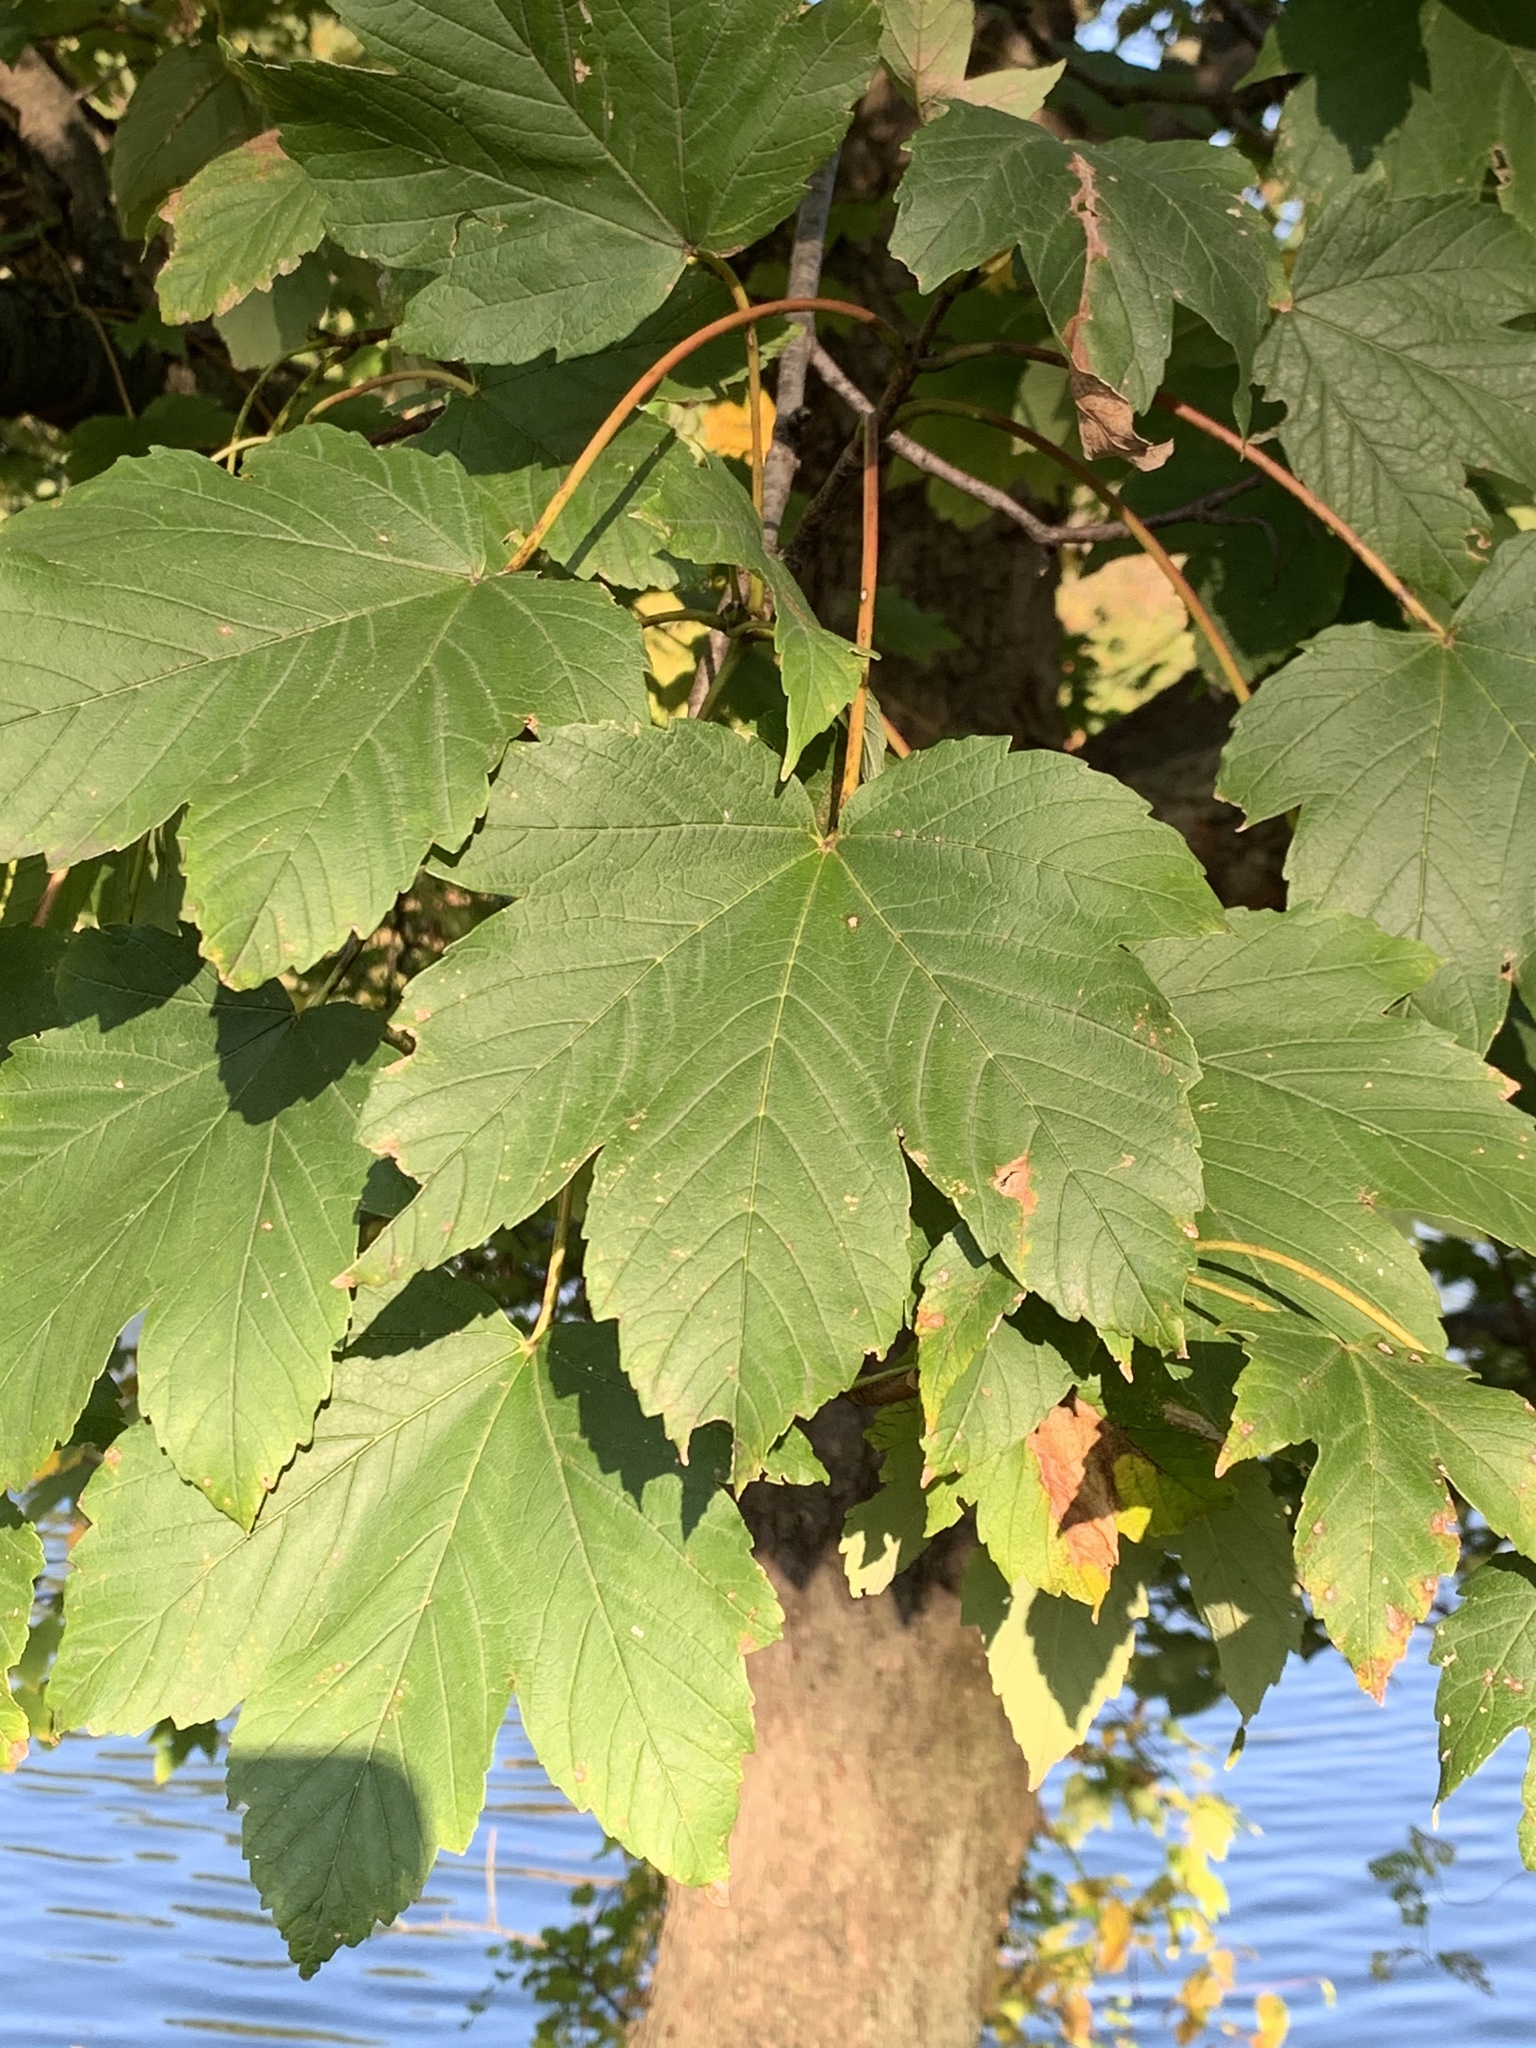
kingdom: Plantae
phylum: Tracheophyta
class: Magnoliopsida
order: Sapindales
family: Sapindaceae
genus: Acer
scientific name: Acer pseudoplatanus
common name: Sycamore
